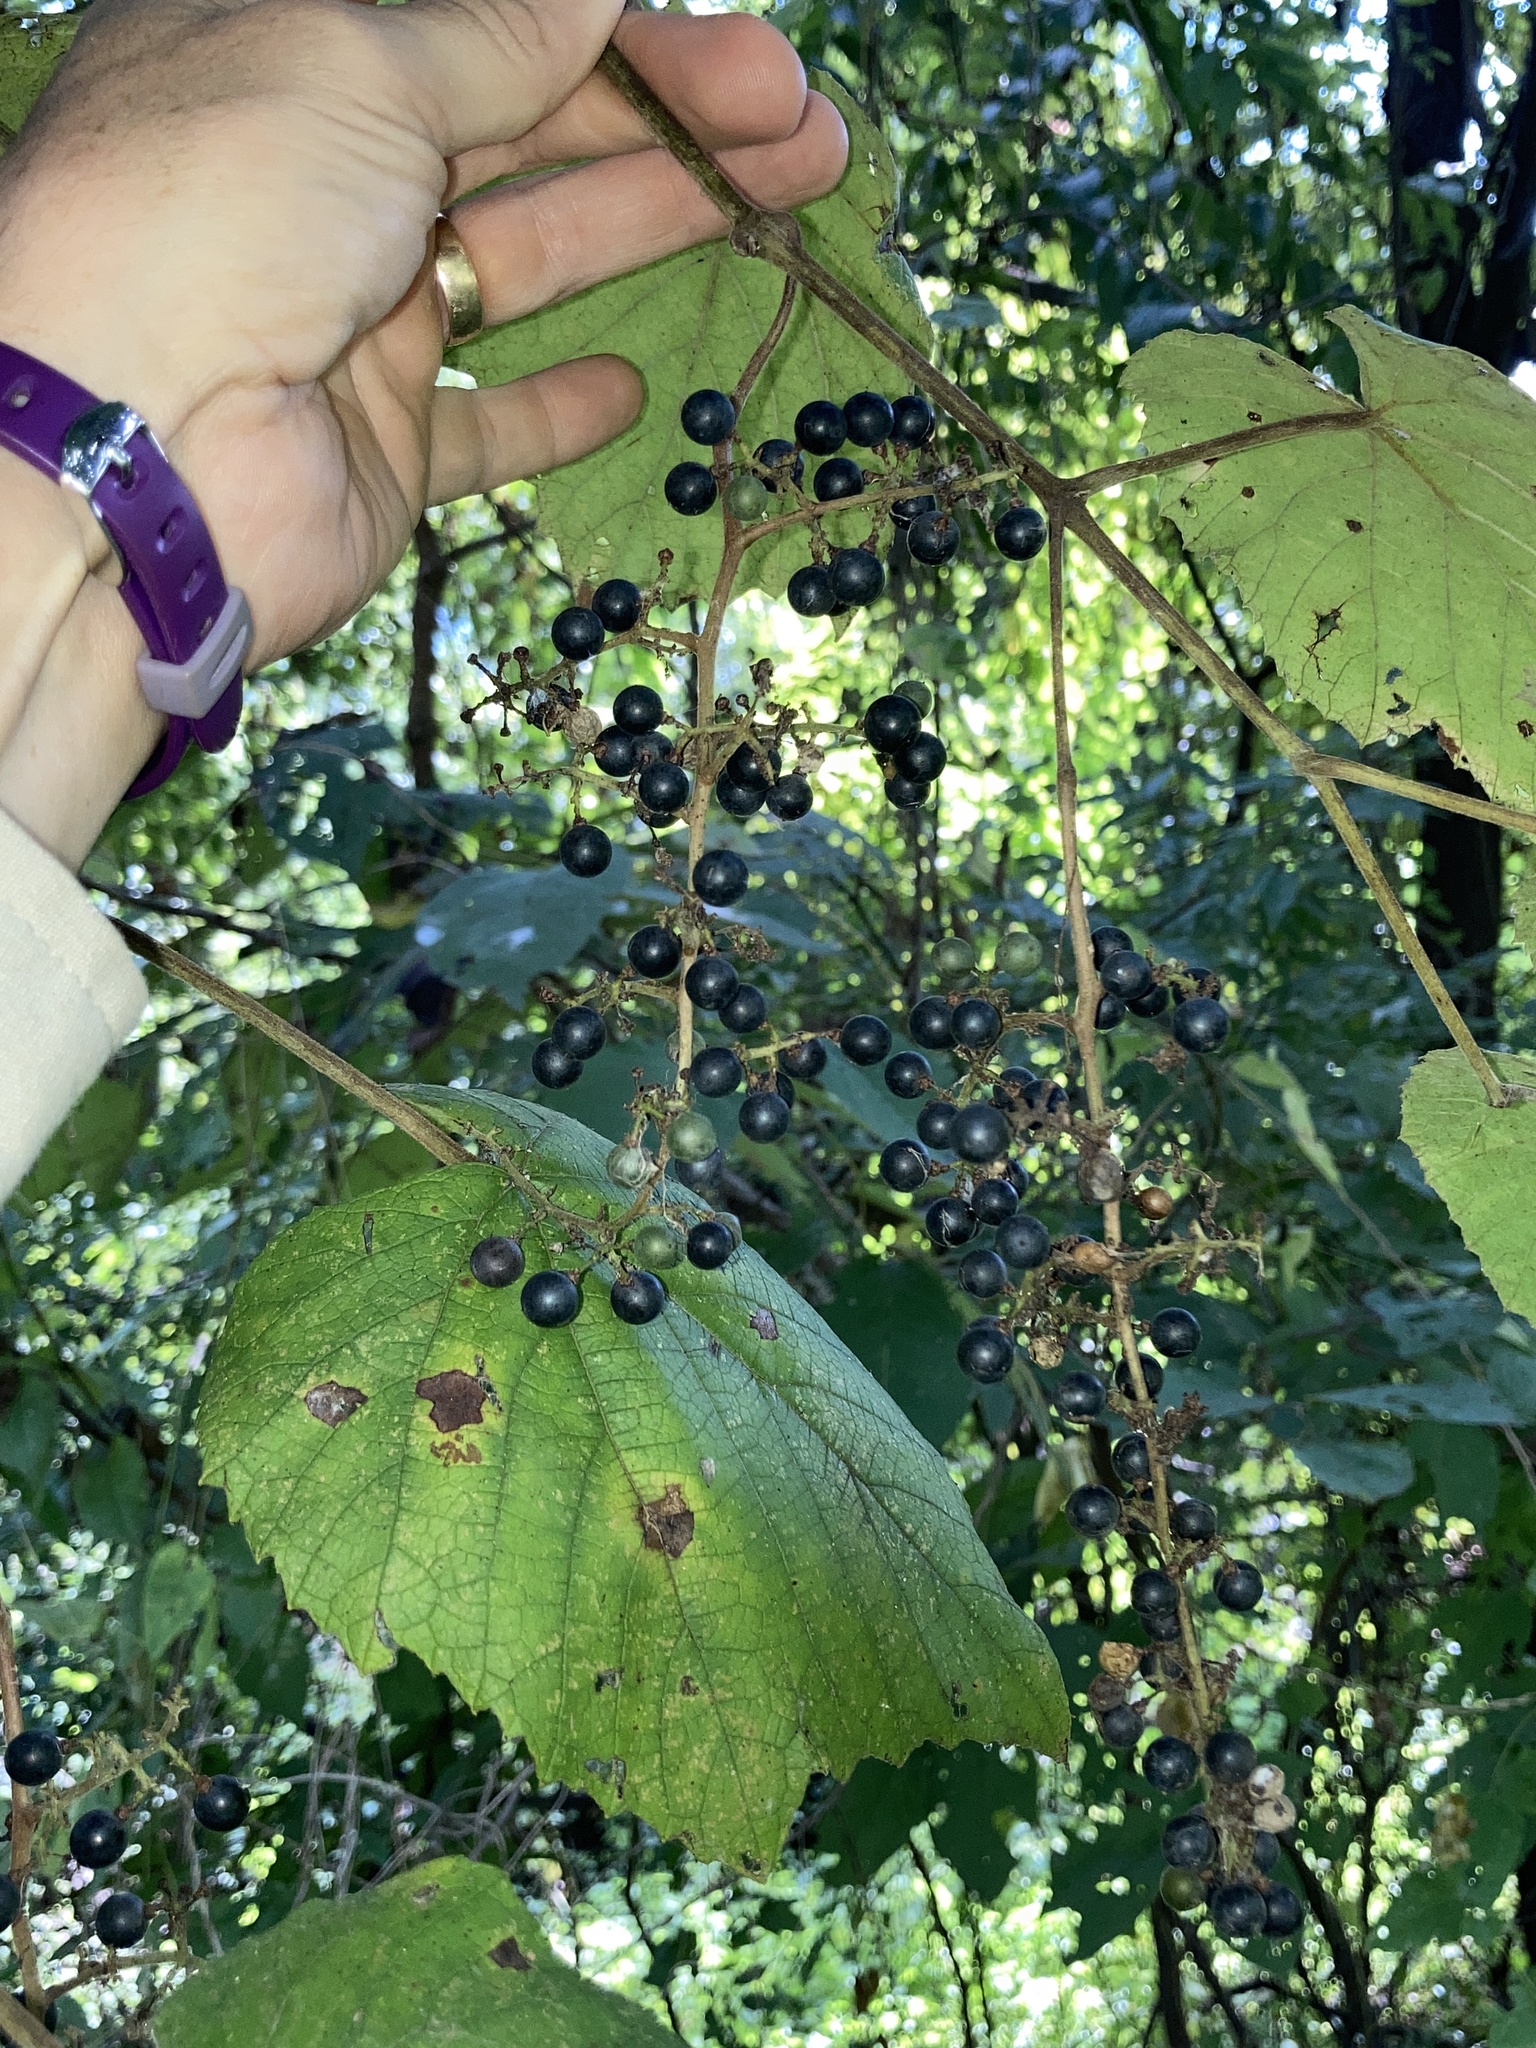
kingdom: Plantae
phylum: Tracheophyta
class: Magnoliopsida
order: Vitales
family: Vitaceae
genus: Vitis
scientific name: Vitis cinerea
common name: Ashy grape
